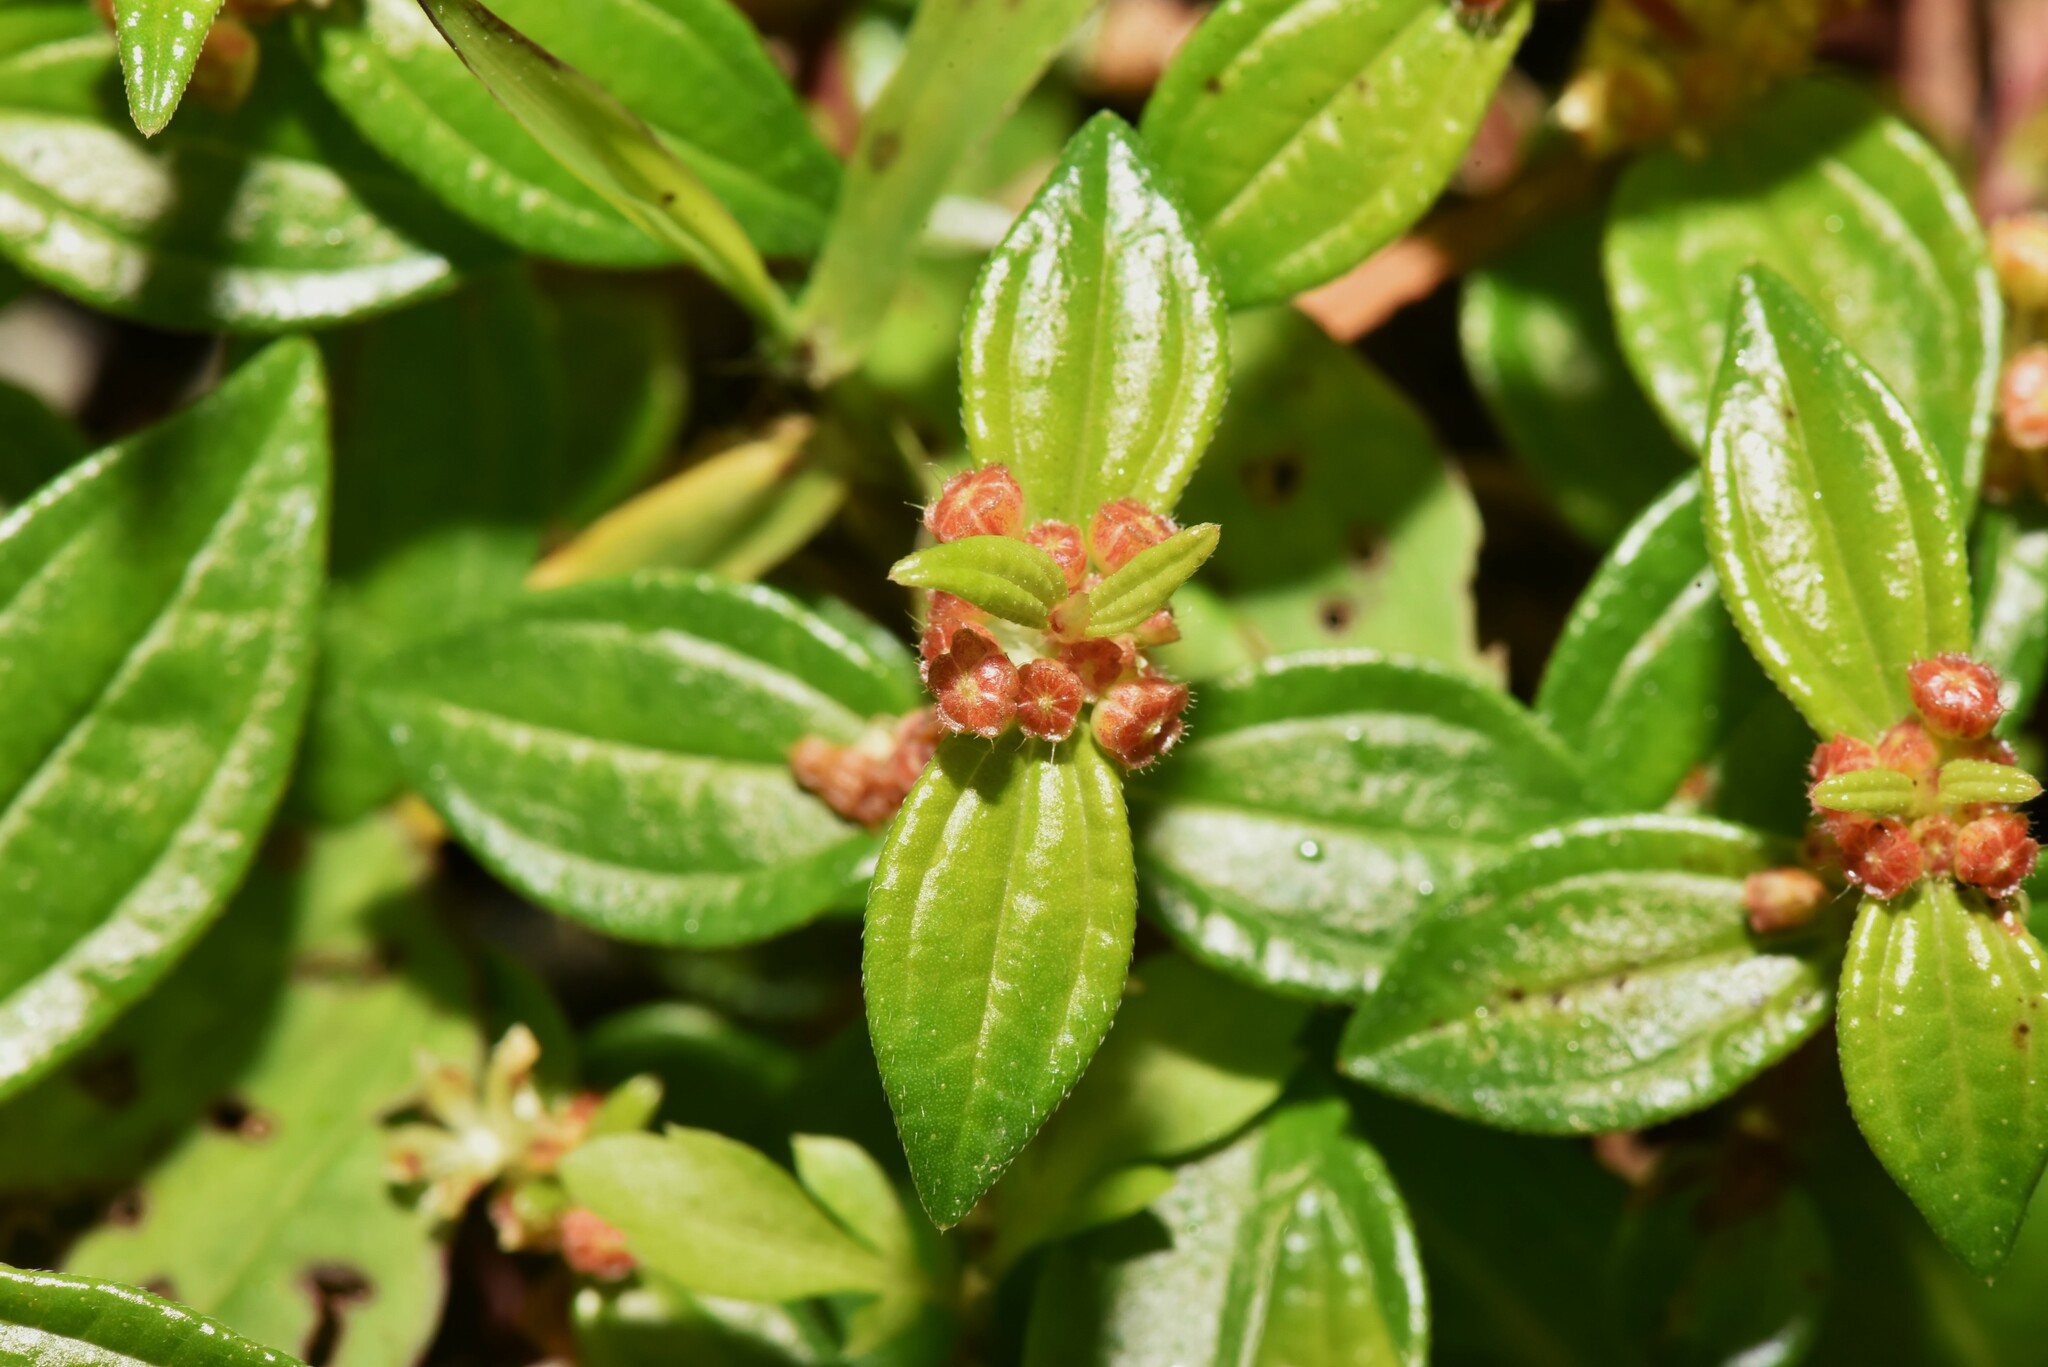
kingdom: Plantae
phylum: Tracheophyta
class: Magnoliopsida
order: Rosales
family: Urticaceae
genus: Gonostegia
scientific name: Gonostegia triandra
